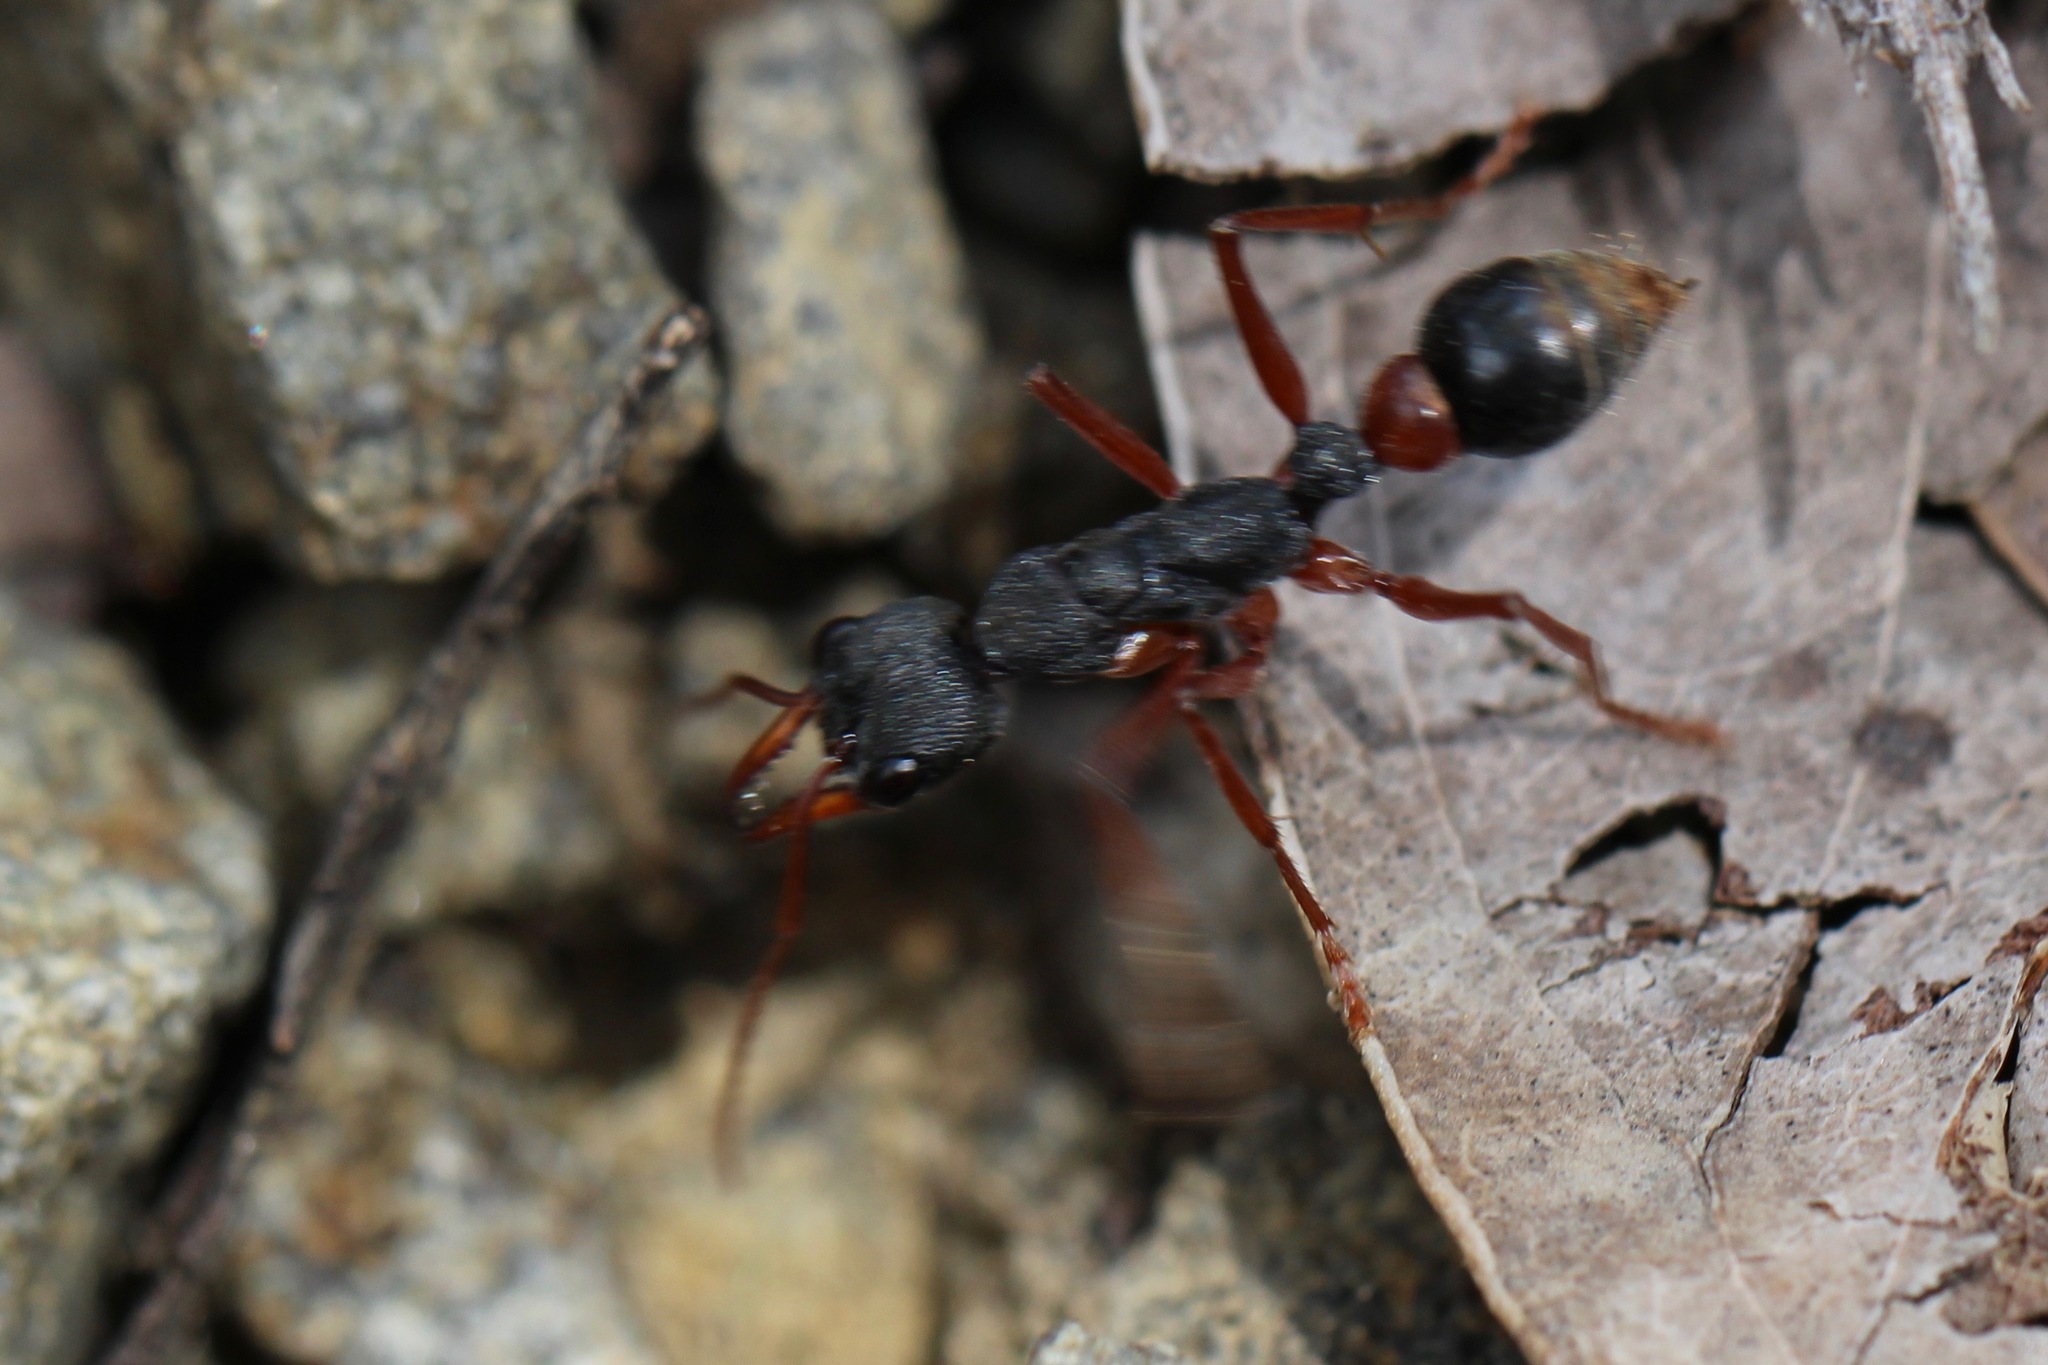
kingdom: Animalia
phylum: Arthropoda
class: Insecta
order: Hymenoptera
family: Formicidae
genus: Myrmecia
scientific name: Myrmecia esuriens
